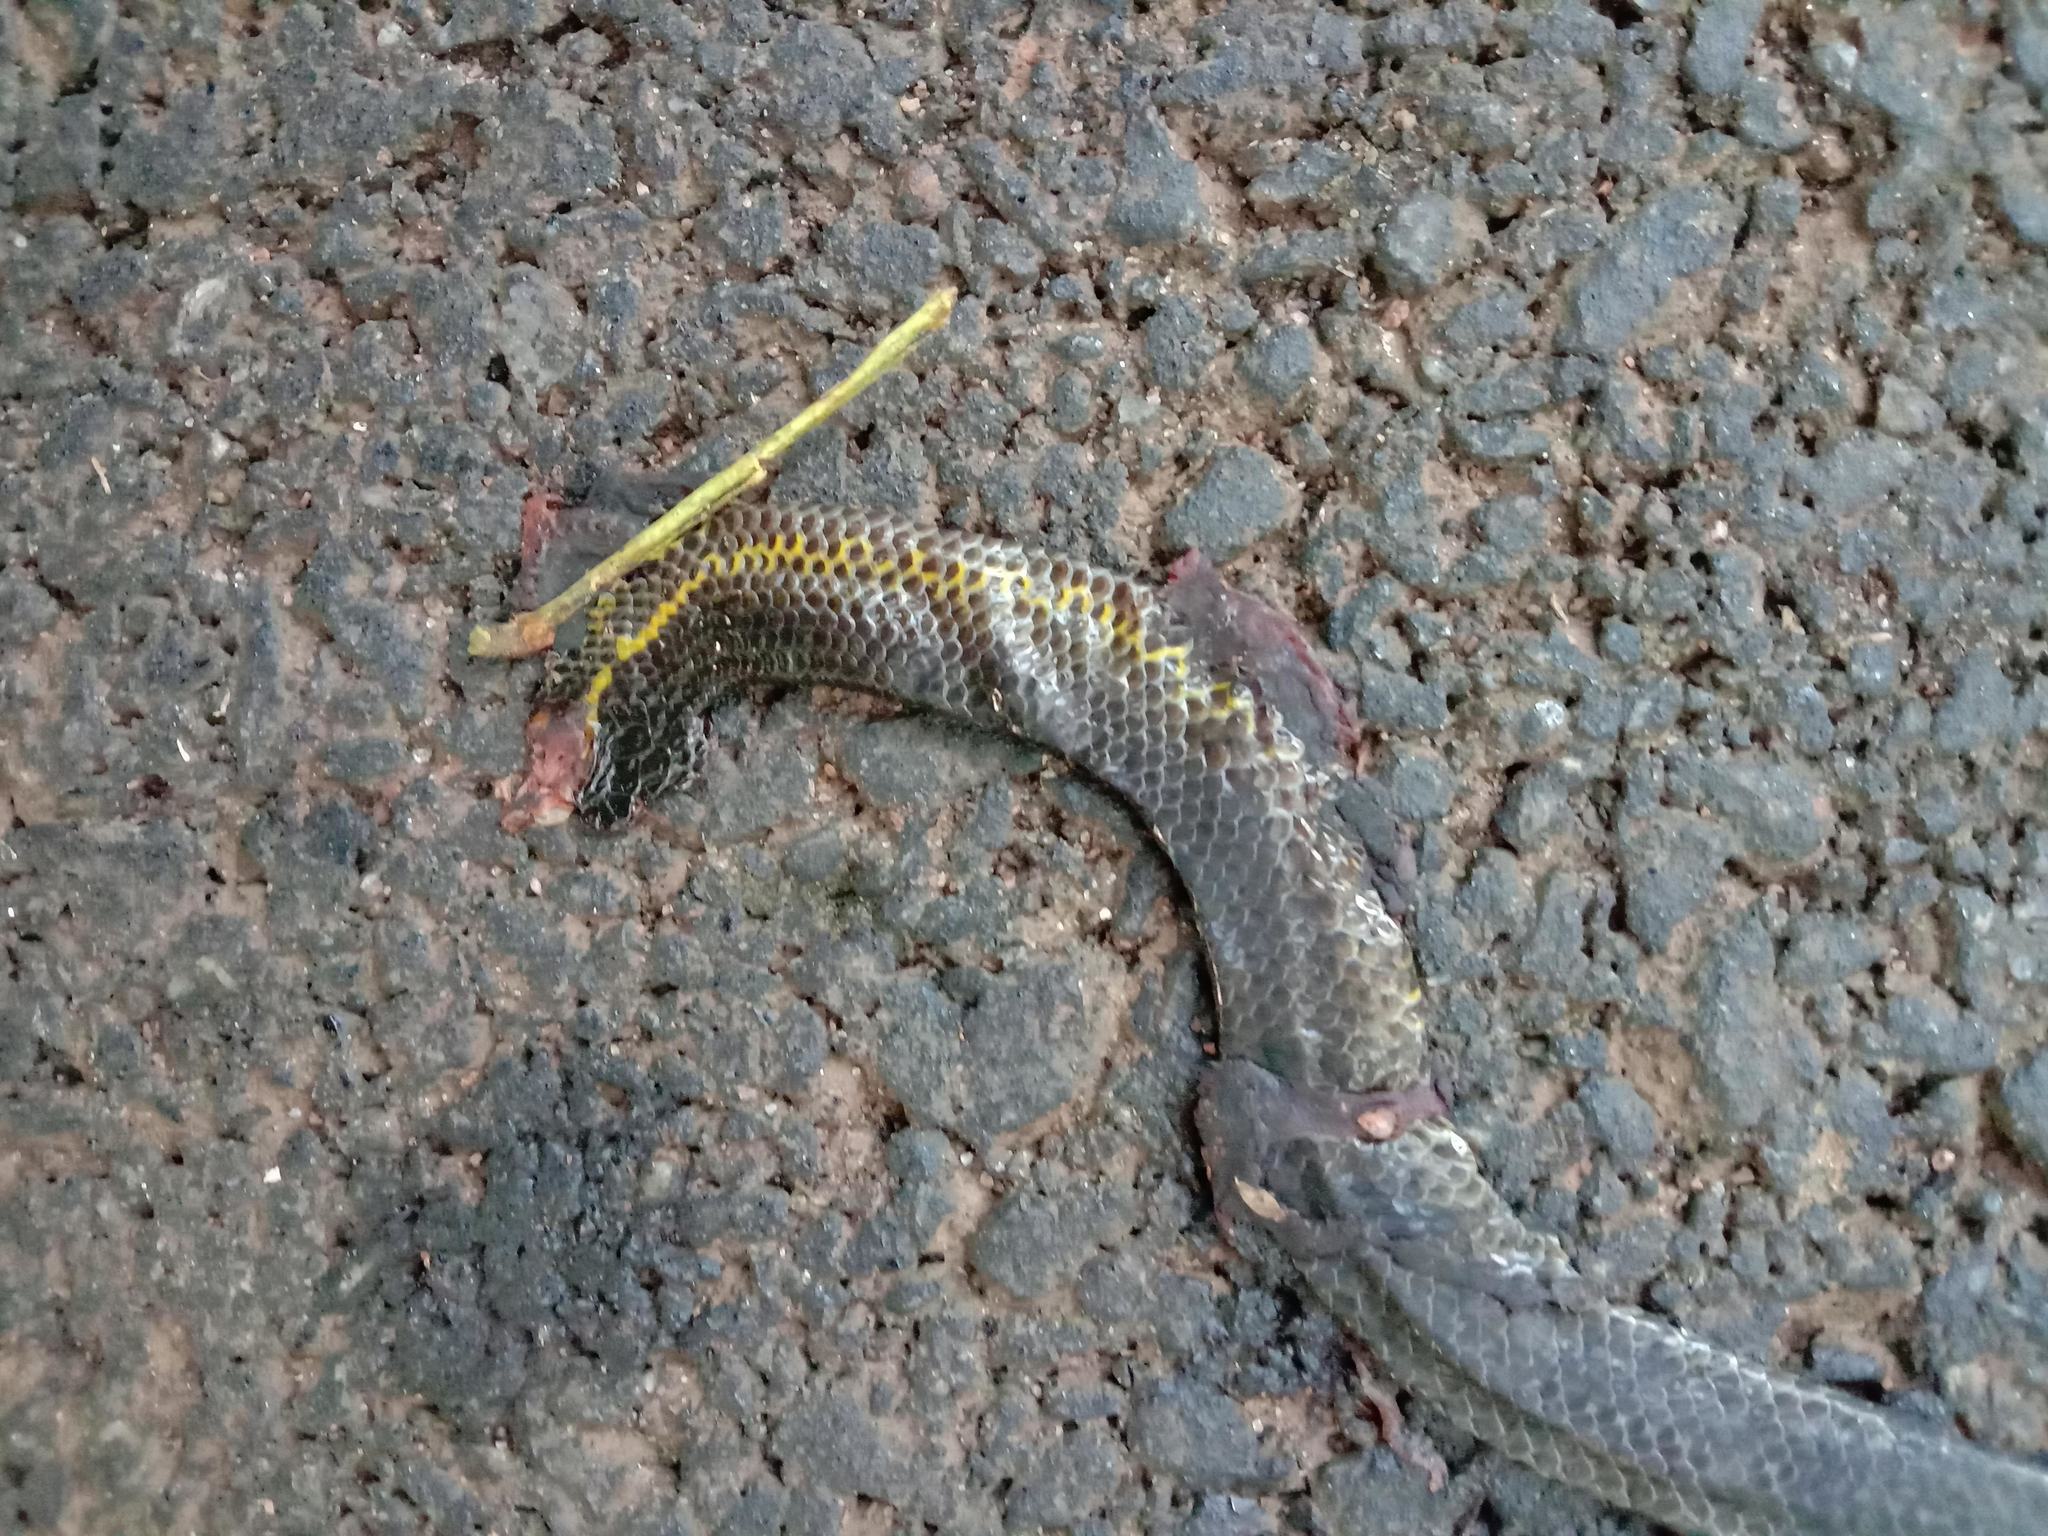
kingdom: Animalia
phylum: Chordata
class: Squamata
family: Uropeltidae
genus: Uropeltis
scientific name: Uropeltis ellioti
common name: Elliot's earth snake
